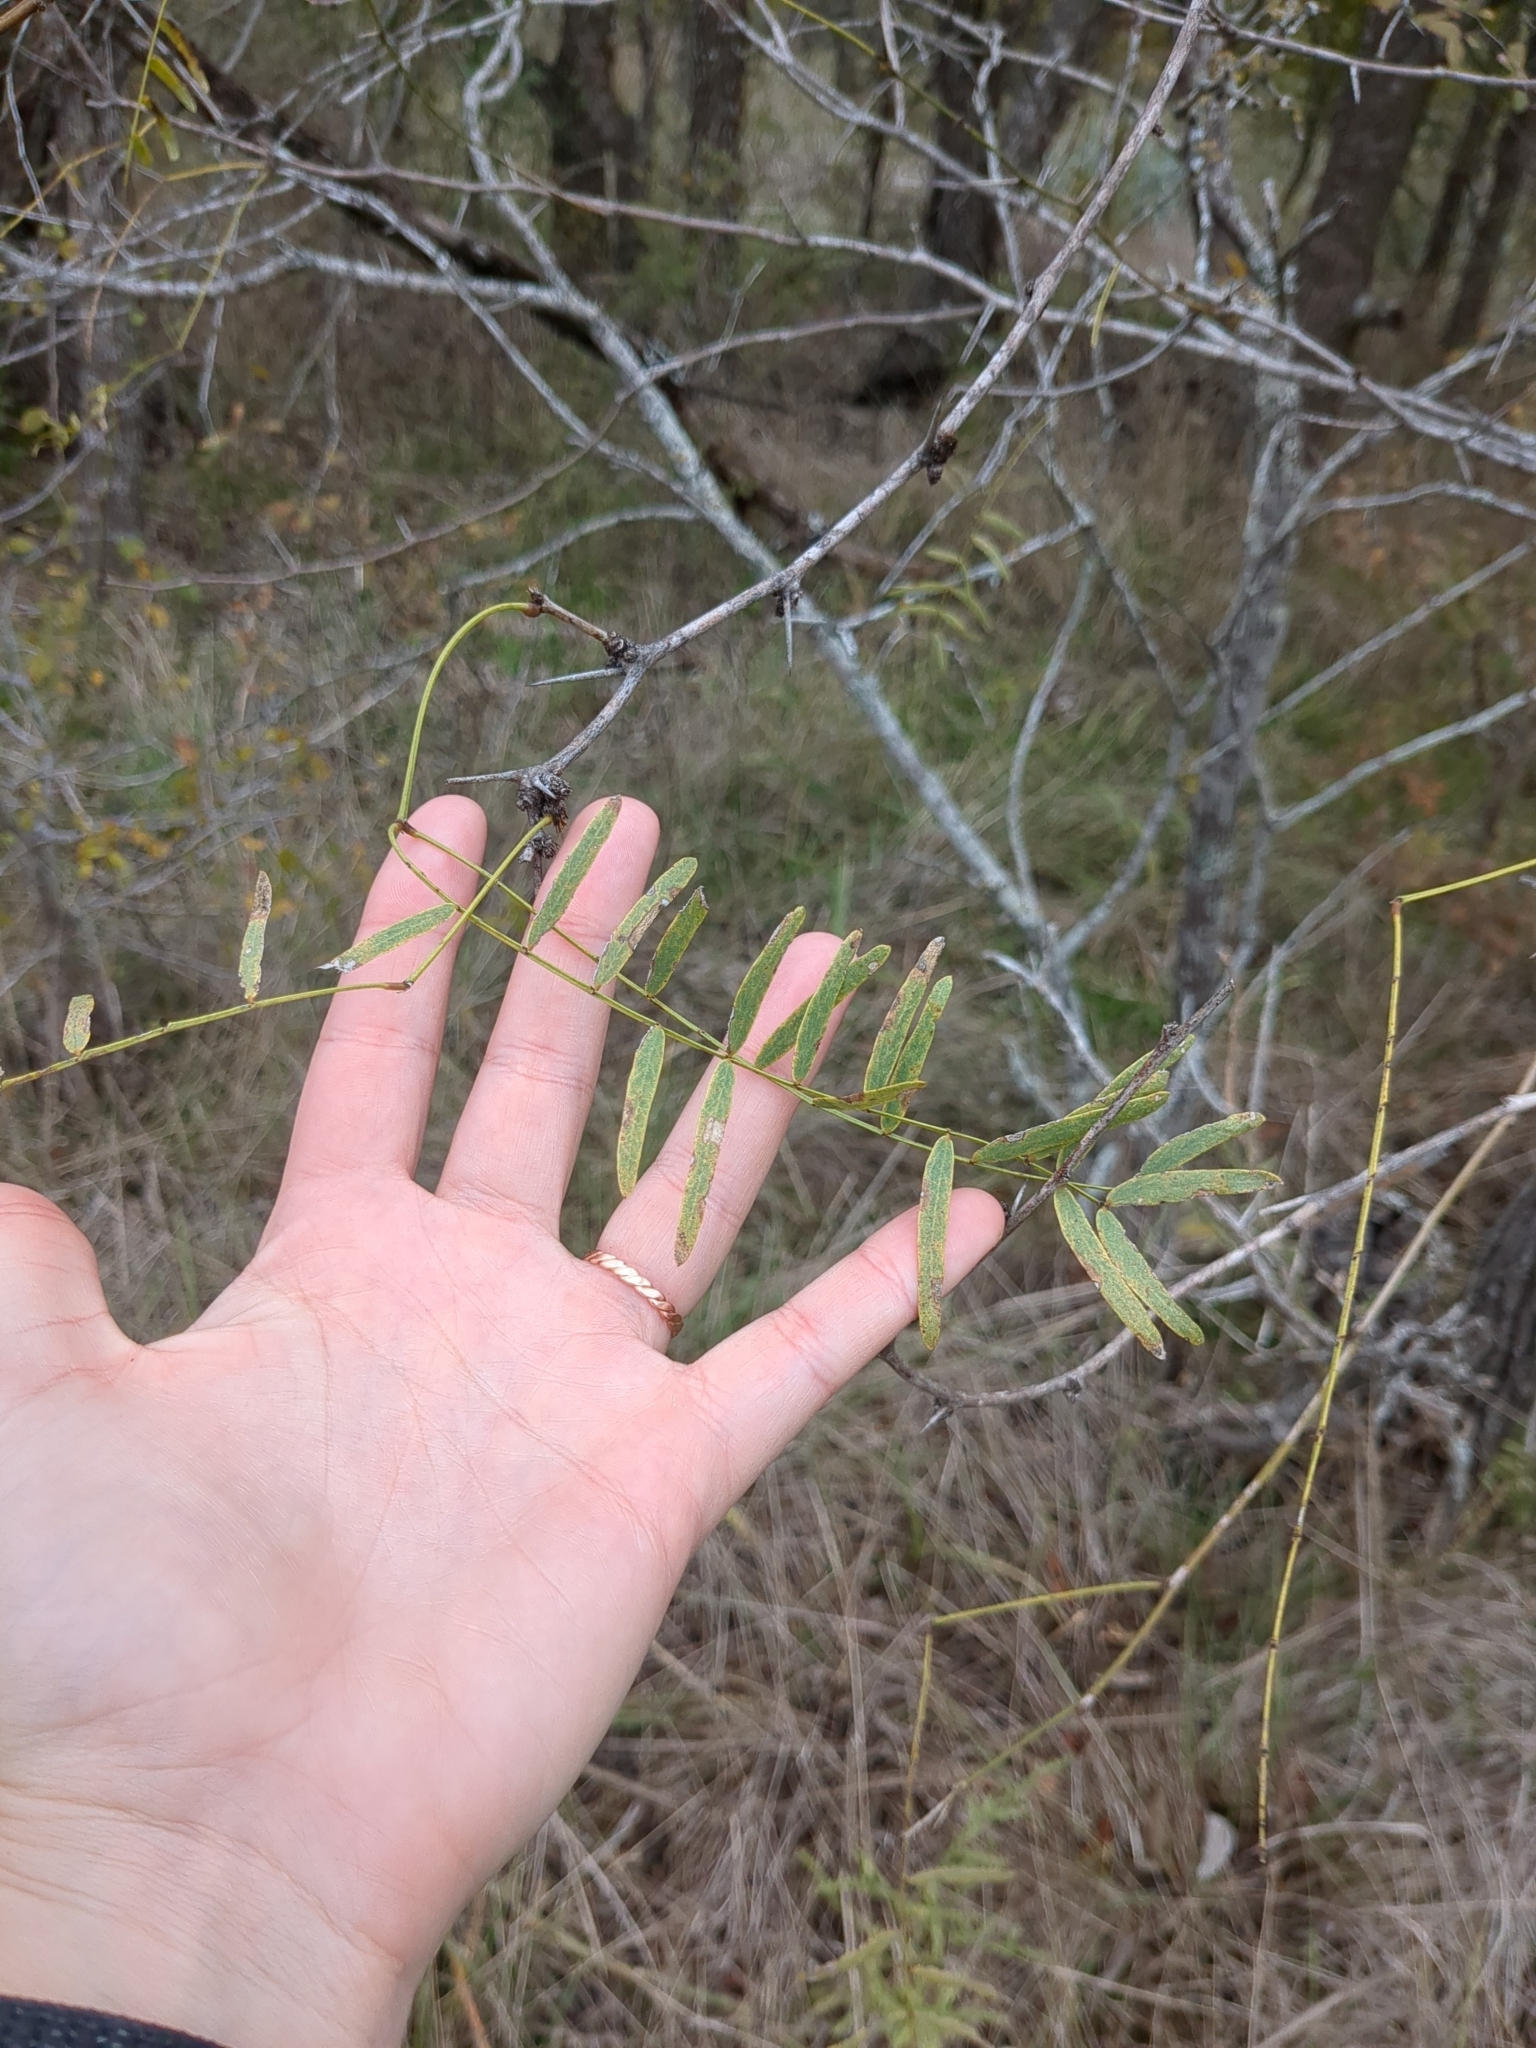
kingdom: Plantae
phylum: Tracheophyta
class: Magnoliopsida
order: Fabales
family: Fabaceae
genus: Prosopis
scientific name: Prosopis glandulosa
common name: Honey mesquite
